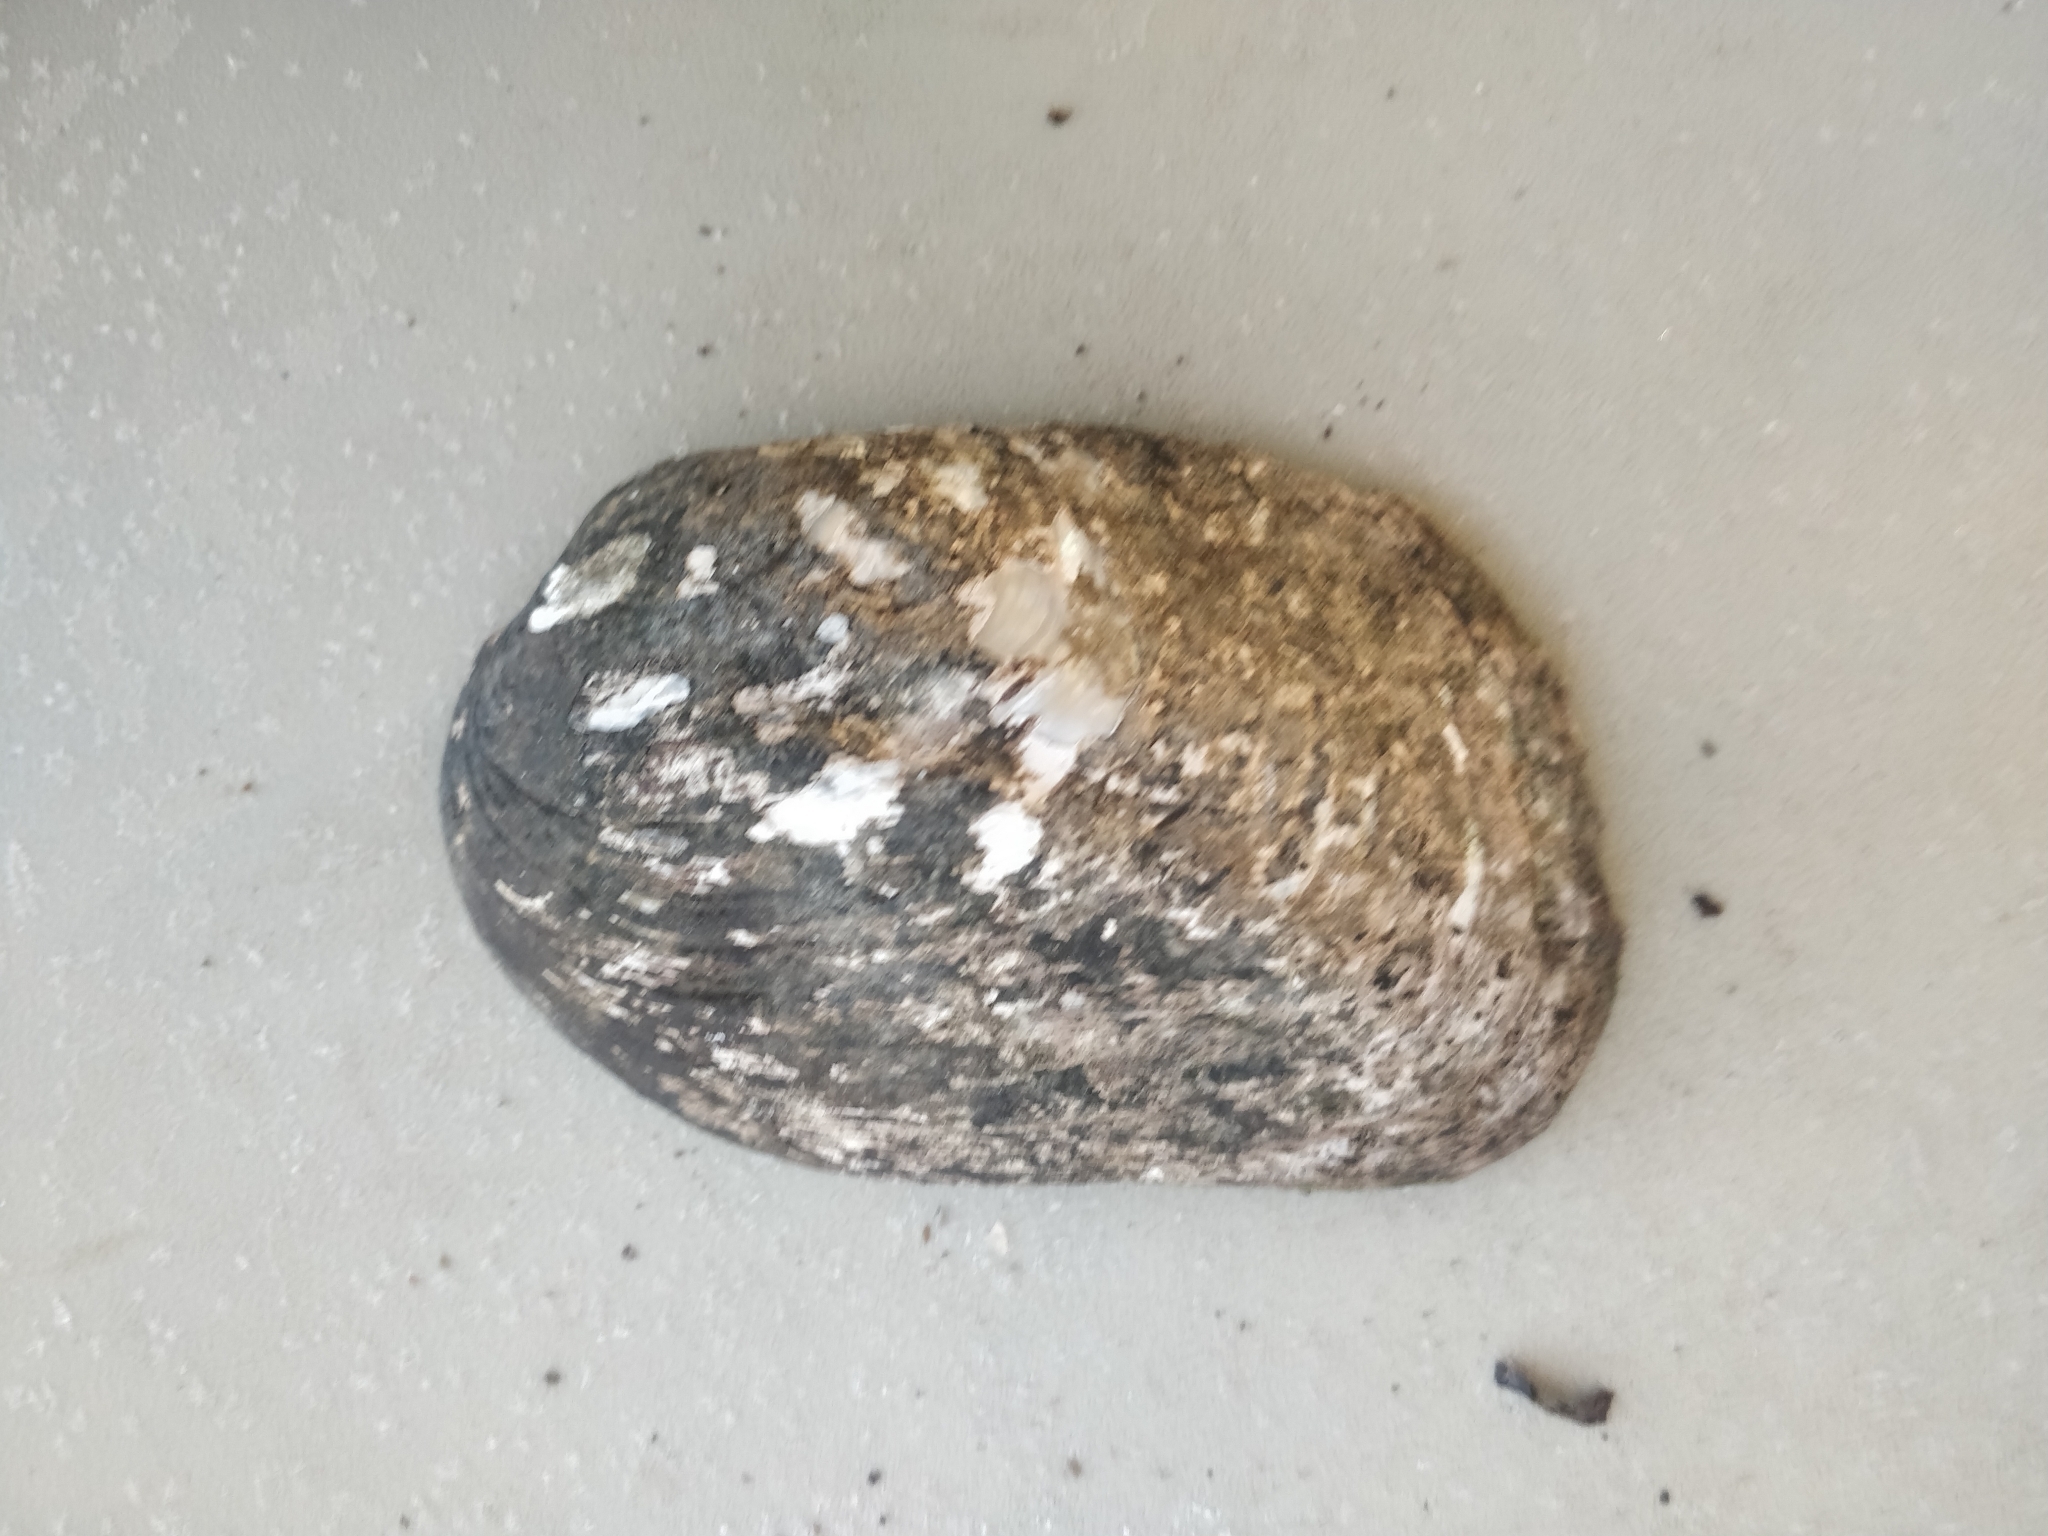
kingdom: Animalia
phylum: Mollusca
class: Bivalvia
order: Unionida
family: Unionidae
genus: Amblema
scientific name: Amblema plicata
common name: Threeridge
